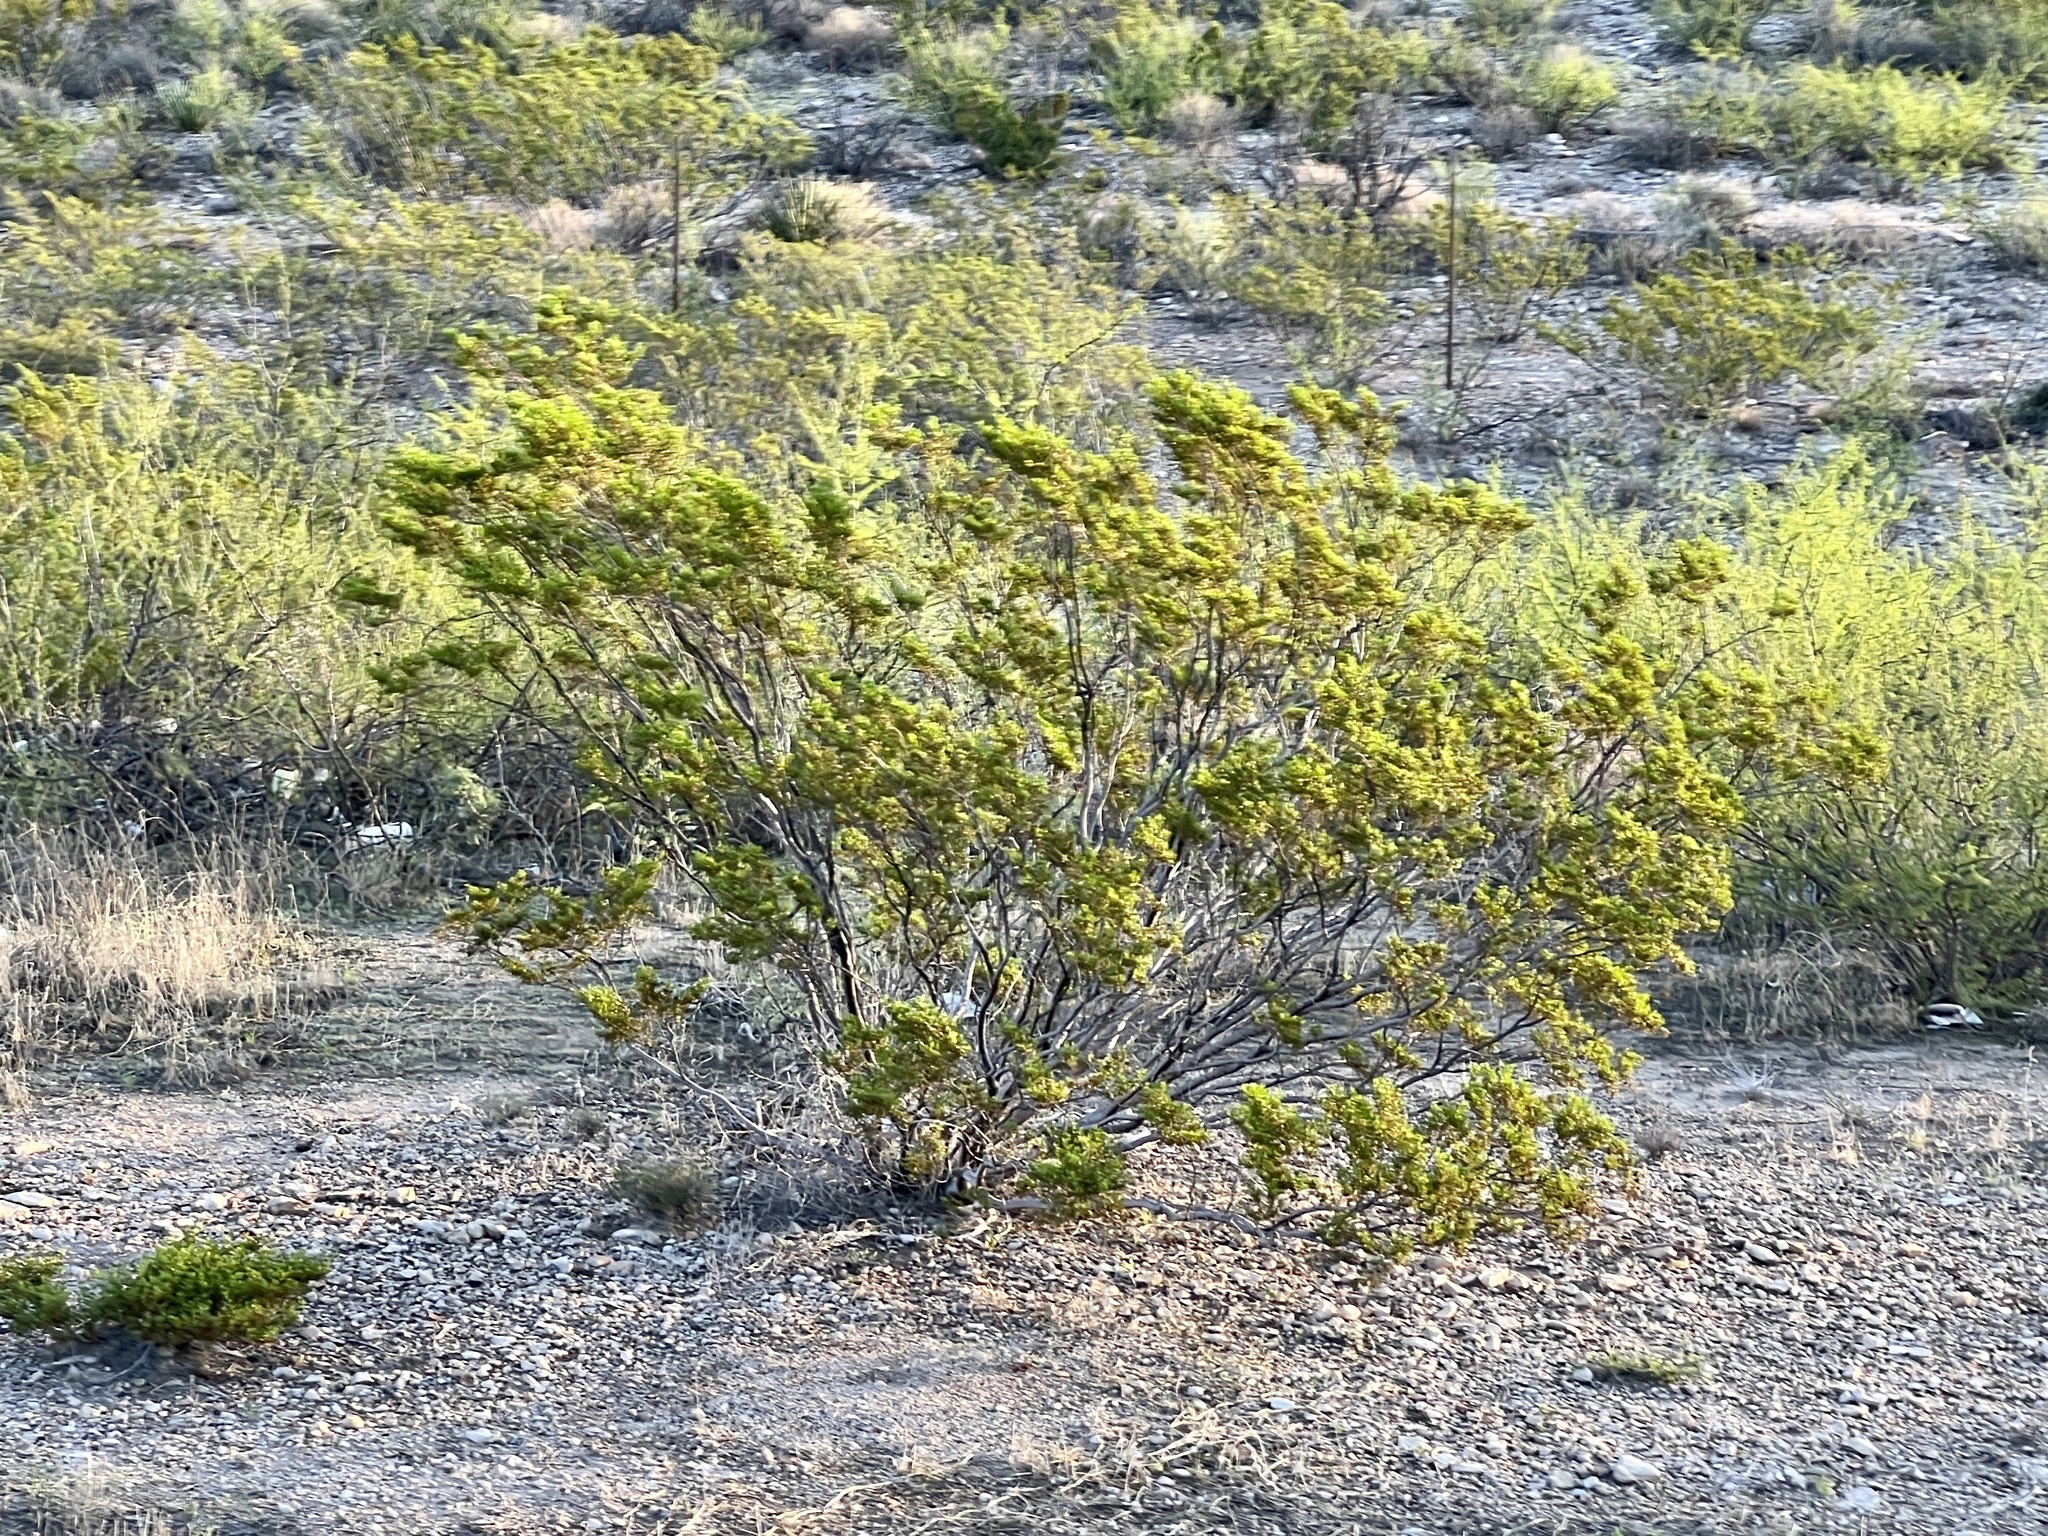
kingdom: Plantae
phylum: Tracheophyta
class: Magnoliopsida
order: Zygophyllales
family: Zygophyllaceae
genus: Larrea
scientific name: Larrea tridentata
